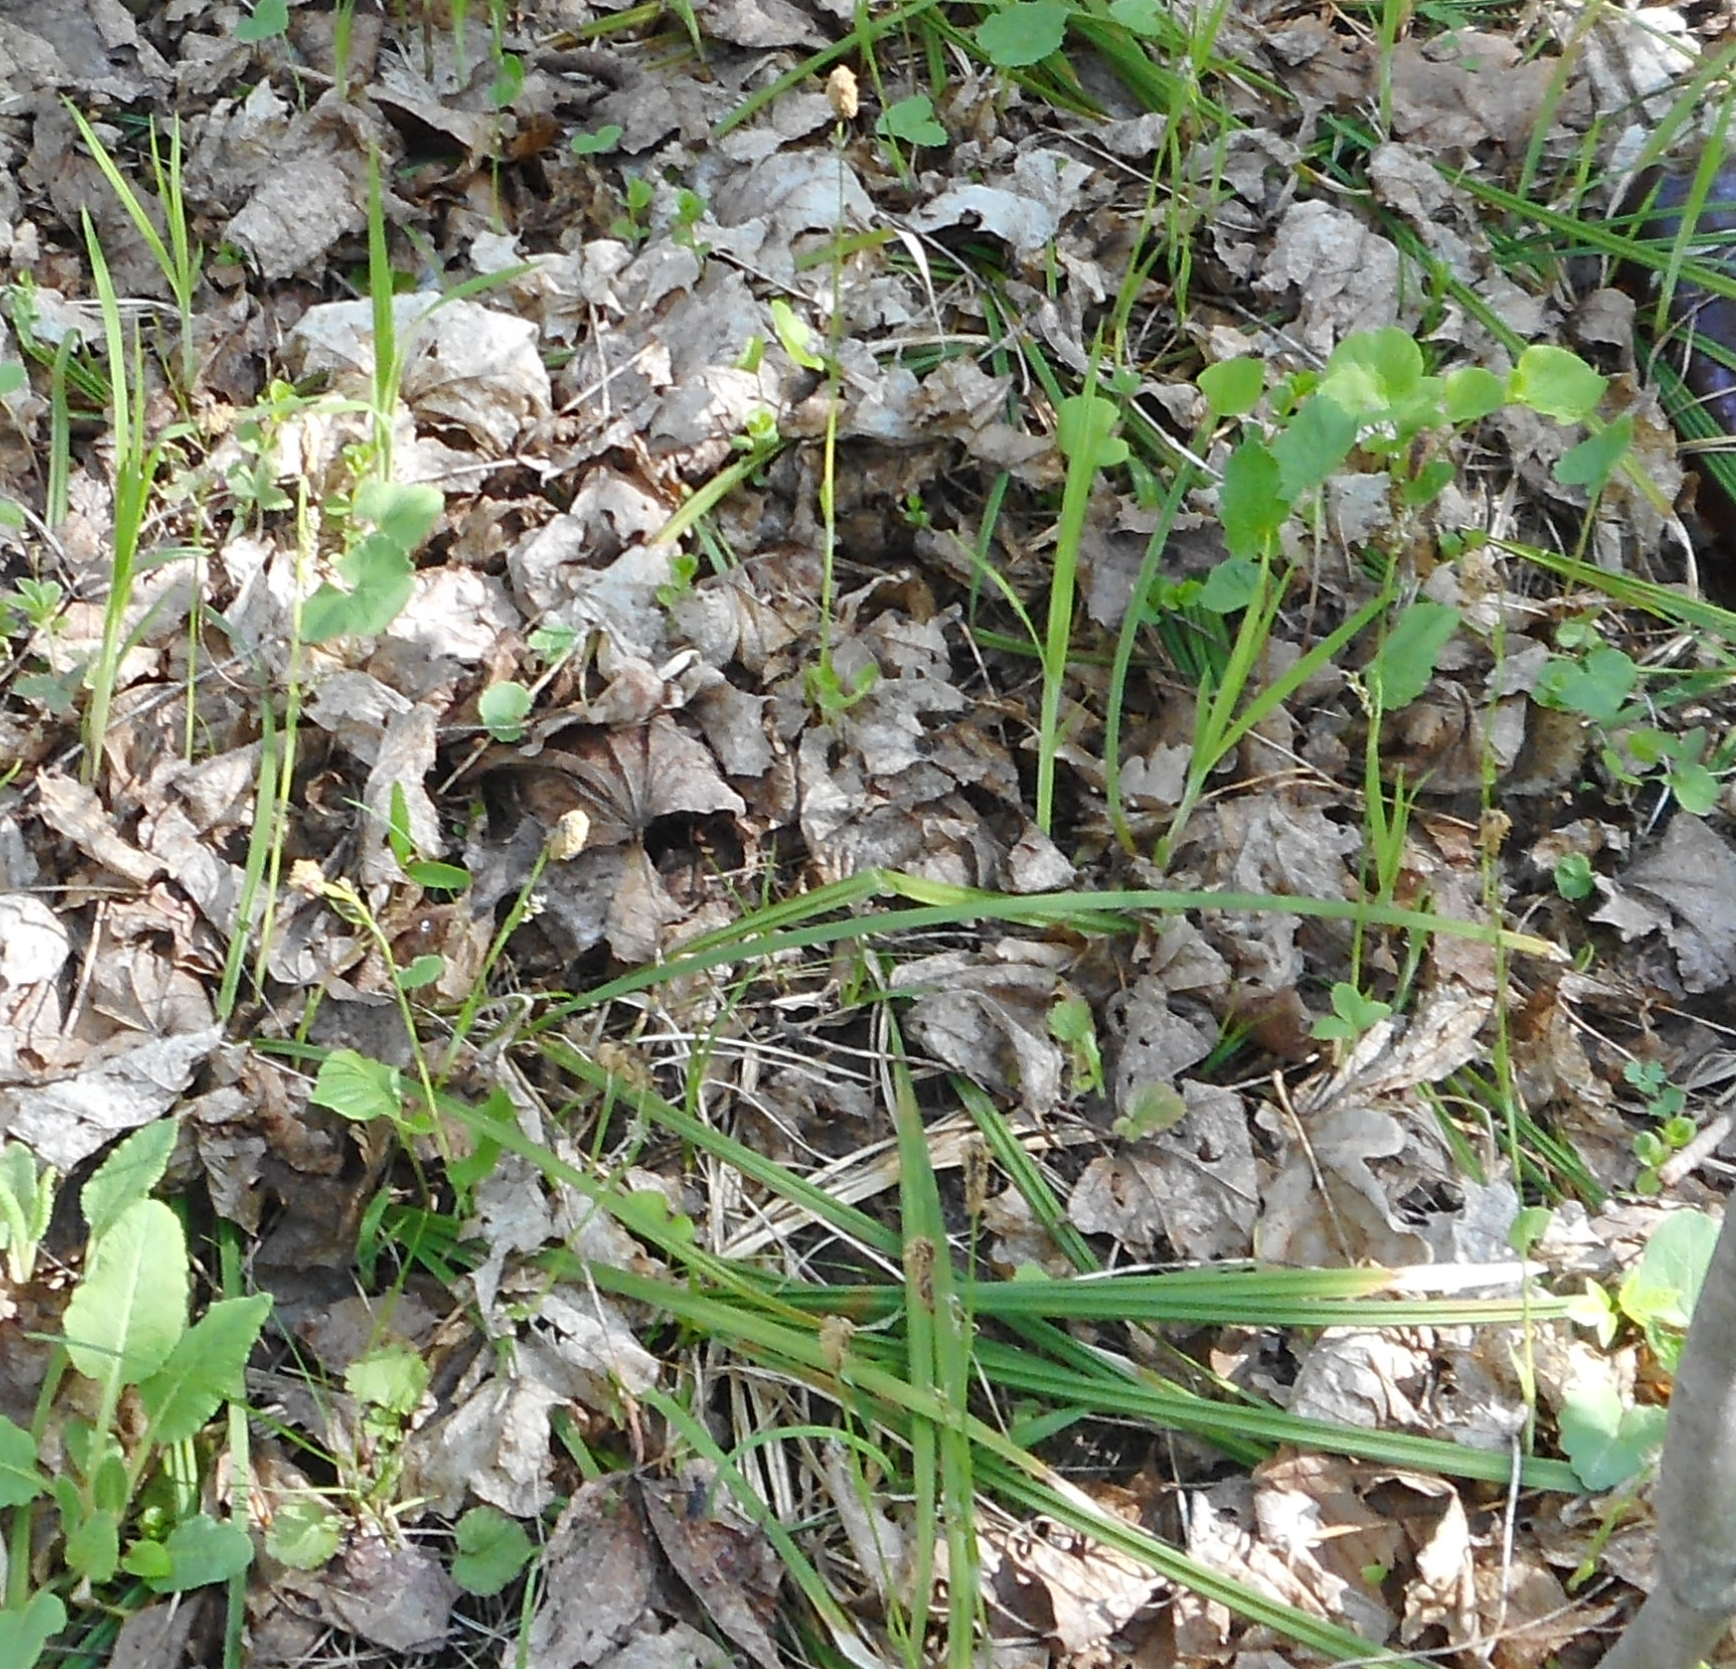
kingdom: Plantae
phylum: Tracheophyta
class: Liliopsida
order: Poales
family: Cyperaceae
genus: Carex
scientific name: Carex pilosa
